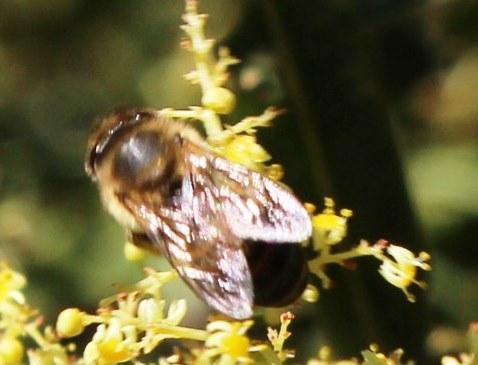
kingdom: Animalia
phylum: Arthropoda
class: Insecta
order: Hymenoptera
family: Apidae
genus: Apis
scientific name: Apis mellifera
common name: Honey bee
